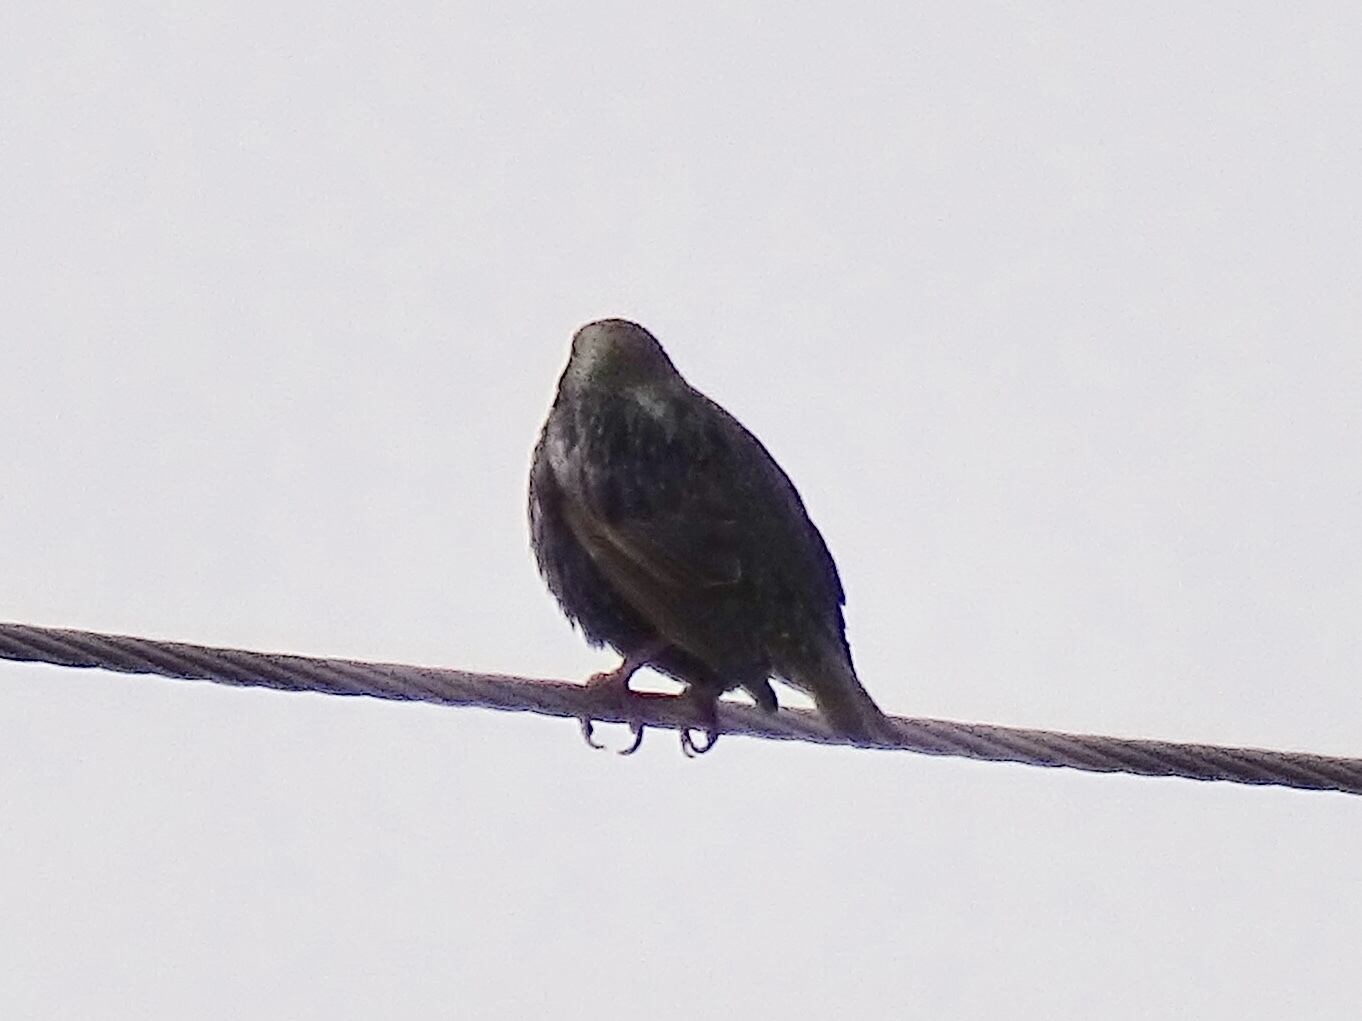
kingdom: Animalia
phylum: Chordata
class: Aves
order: Passeriformes
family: Sturnidae
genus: Sturnus
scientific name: Sturnus vulgaris
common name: Common starling
